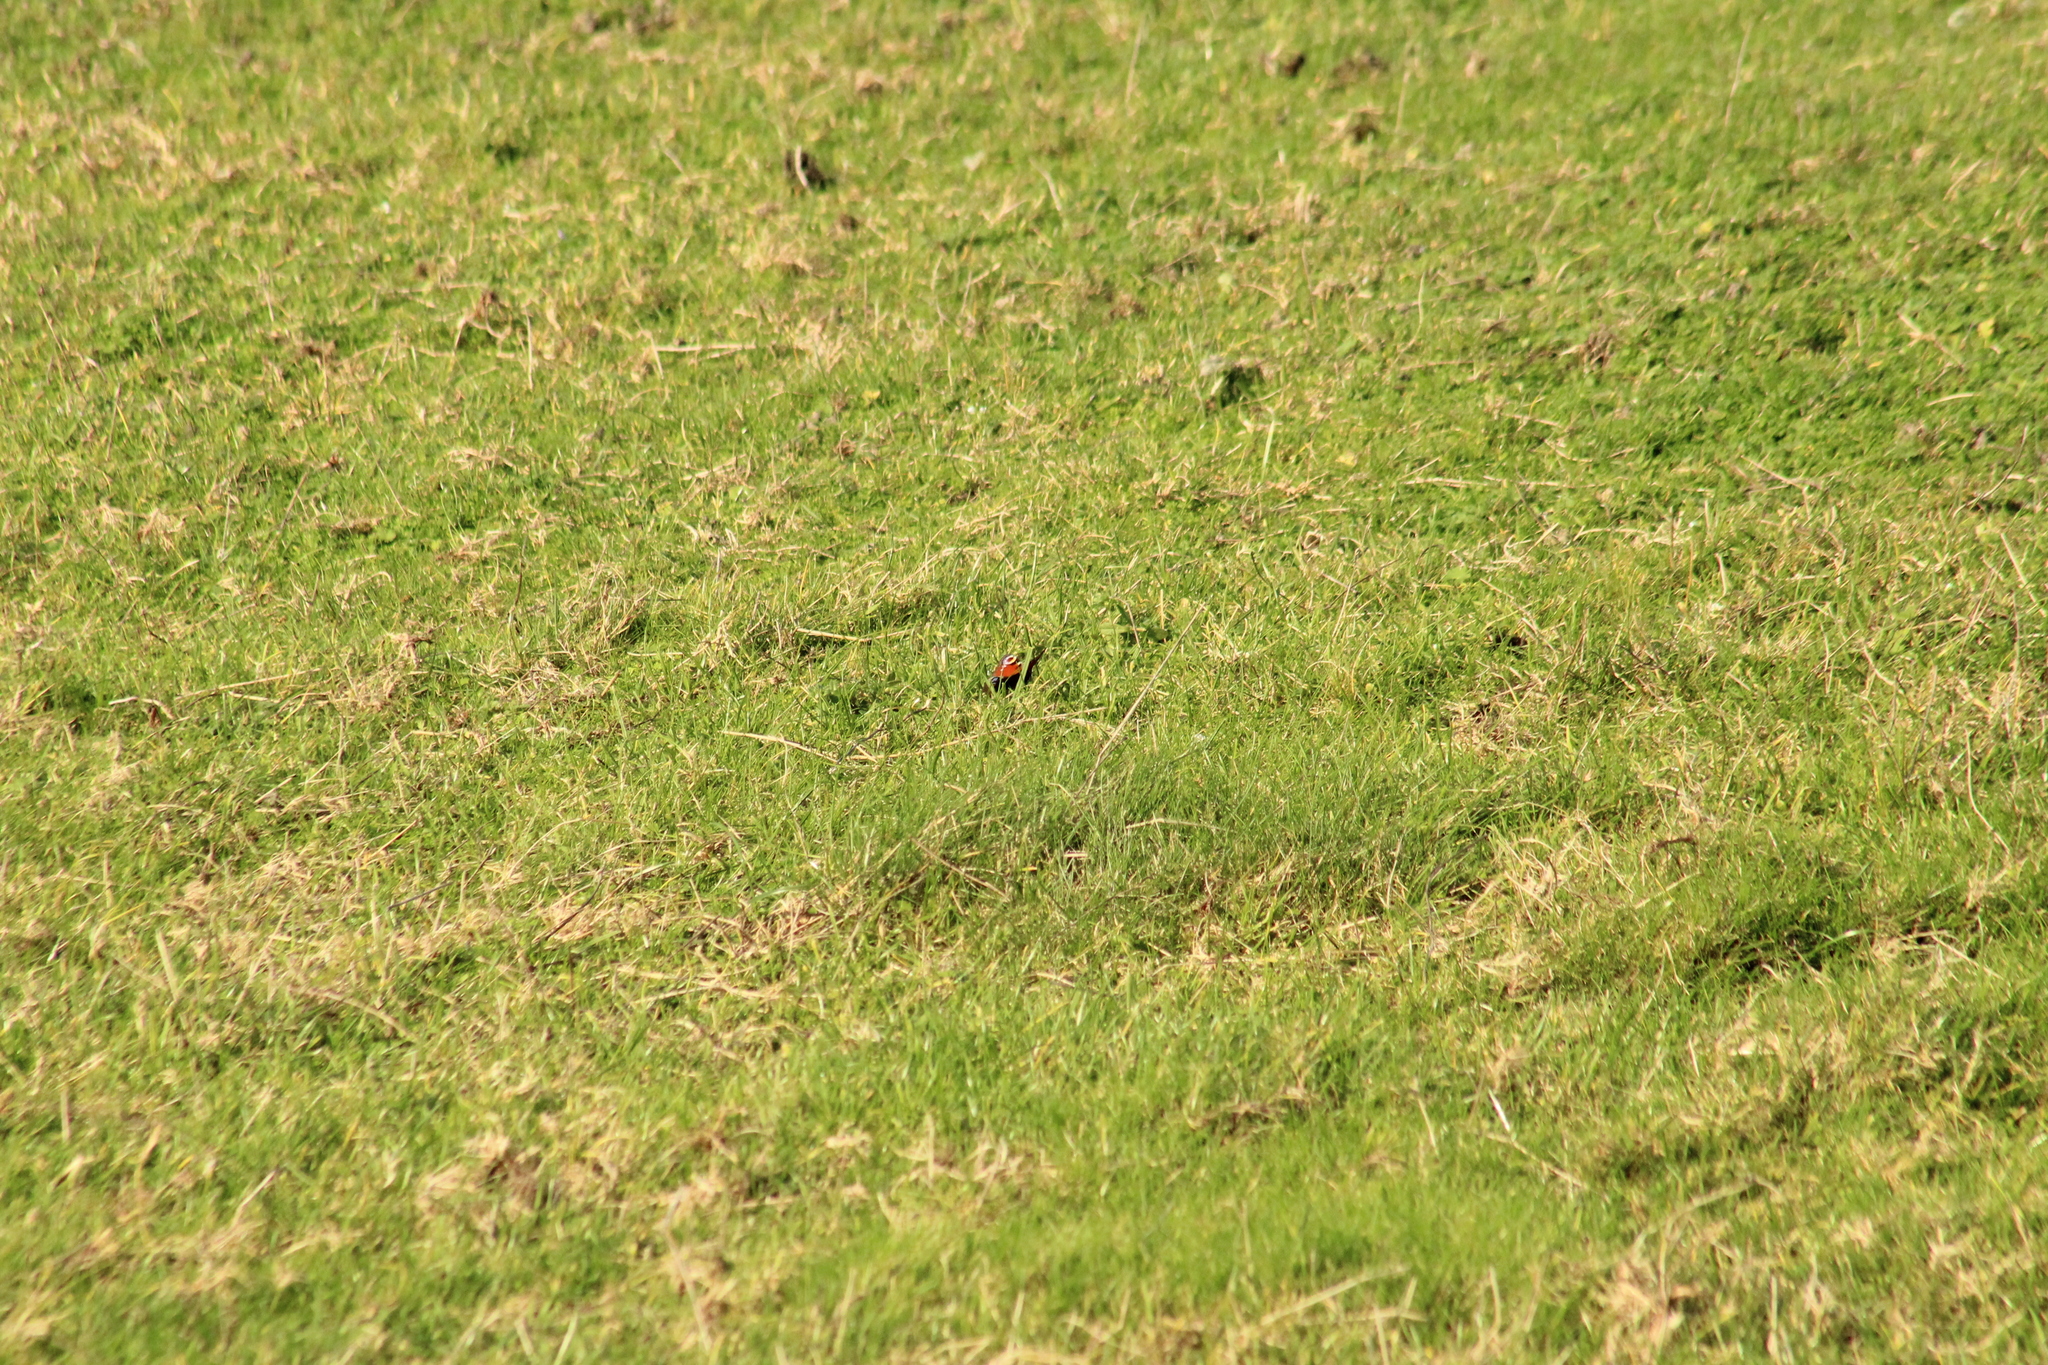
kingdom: Animalia
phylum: Arthropoda
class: Insecta
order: Lepidoptera
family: Nymphalidae
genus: Aglais
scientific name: Aglais io
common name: Peacock
